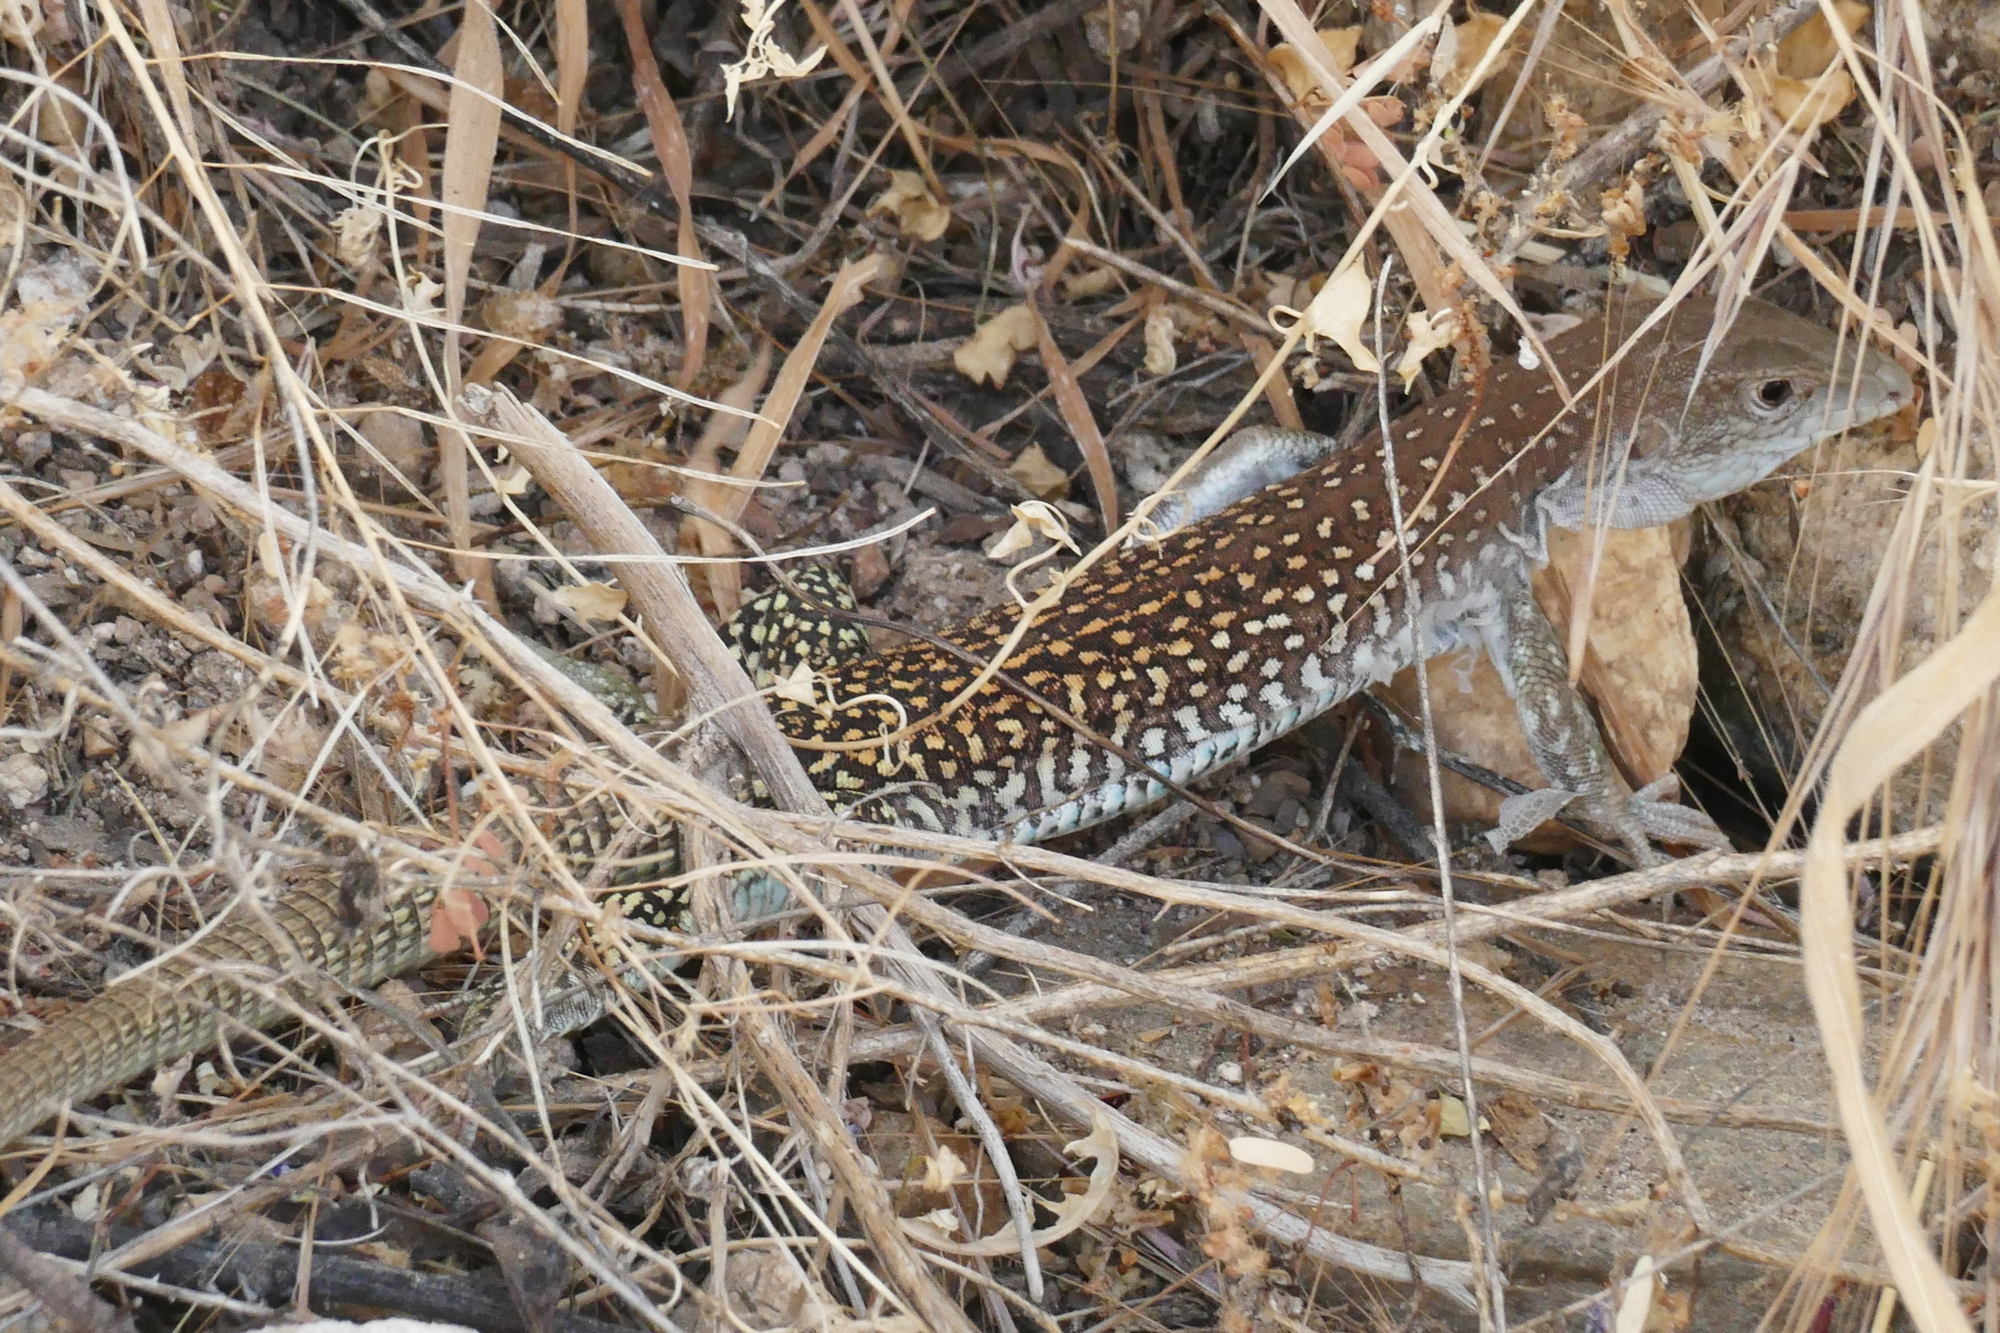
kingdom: Animalia
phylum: Chordata
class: Squamata
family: Teiidae
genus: Aspidoscelis
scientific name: Aspidoscelis stictogrammus
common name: Giant spotted whiptail
